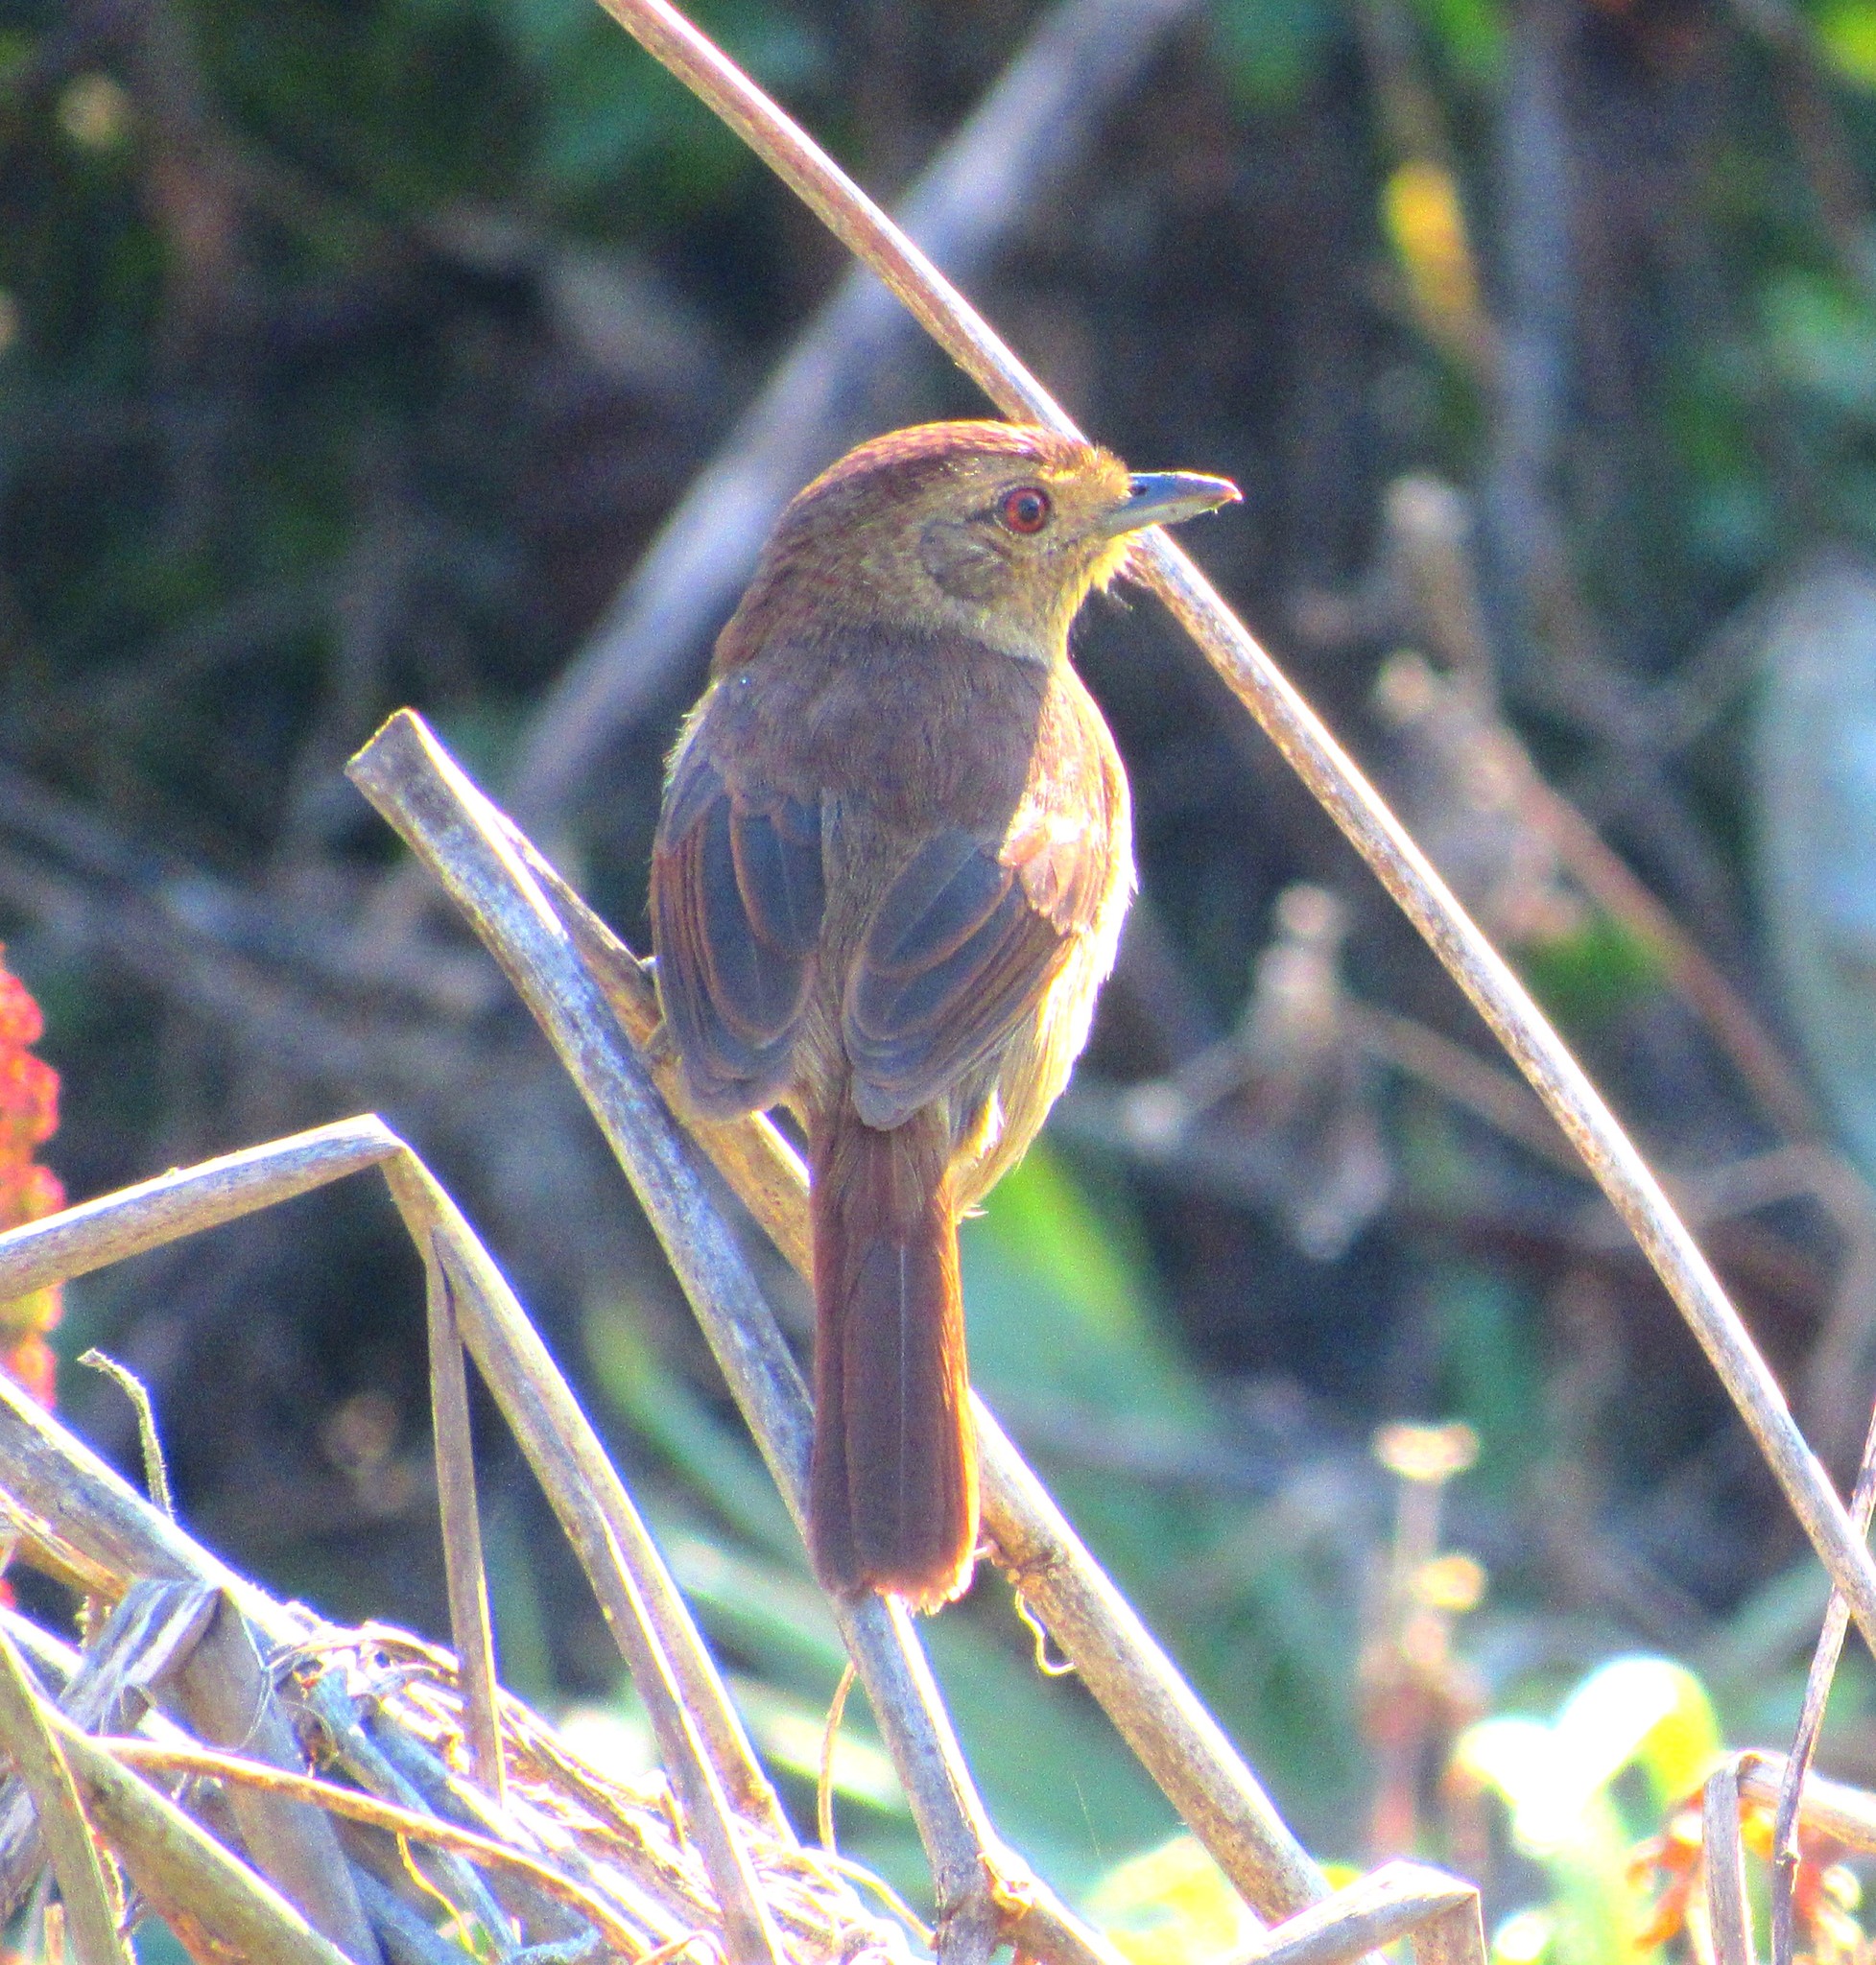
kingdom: Animalia
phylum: Chordata
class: Aves
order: Passeriformes
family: Thamnophilidae
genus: Thamnophilus
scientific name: Thamnophilus ruficapillus
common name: Rufous-capped antshrike
